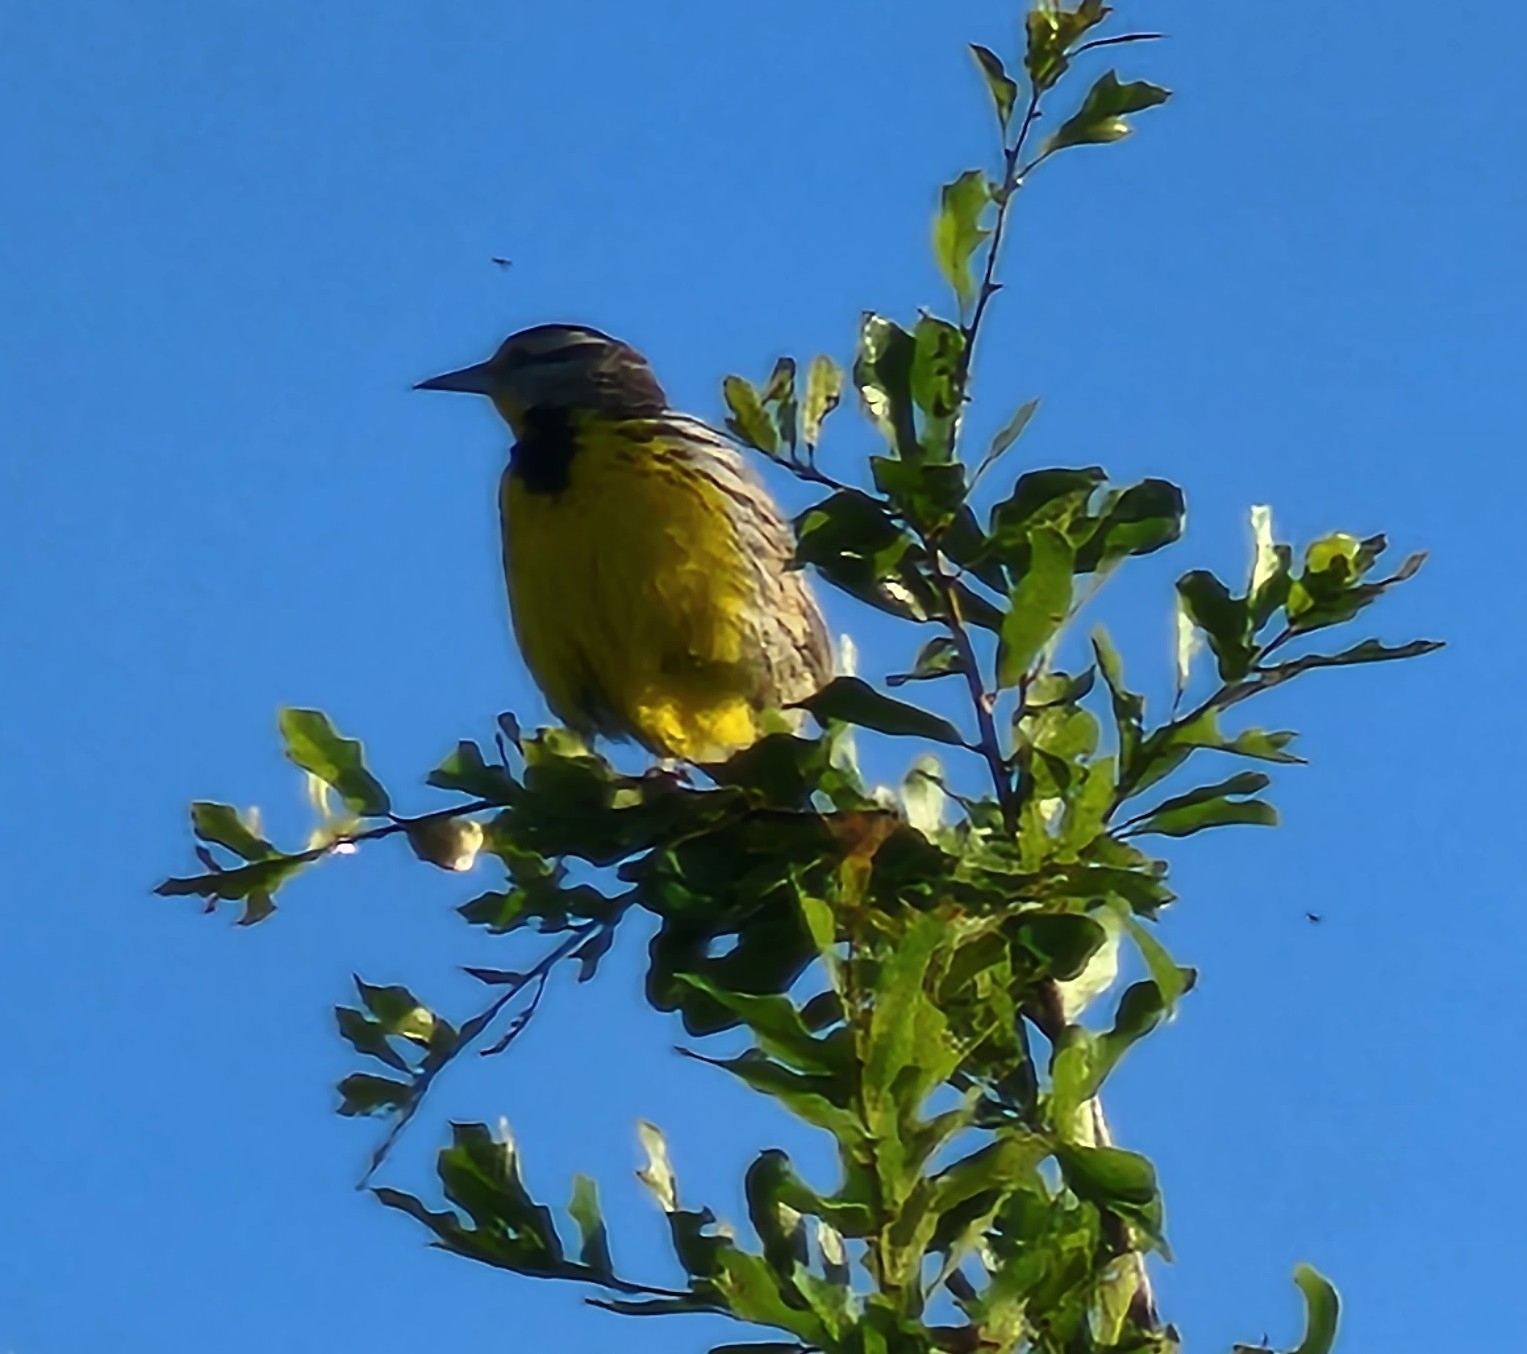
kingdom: Animalia
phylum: Chordata
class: Aves
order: Passeriformes
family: Icteridae
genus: Sturnella
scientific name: Sturnella magna
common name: Eastern meadowlark
